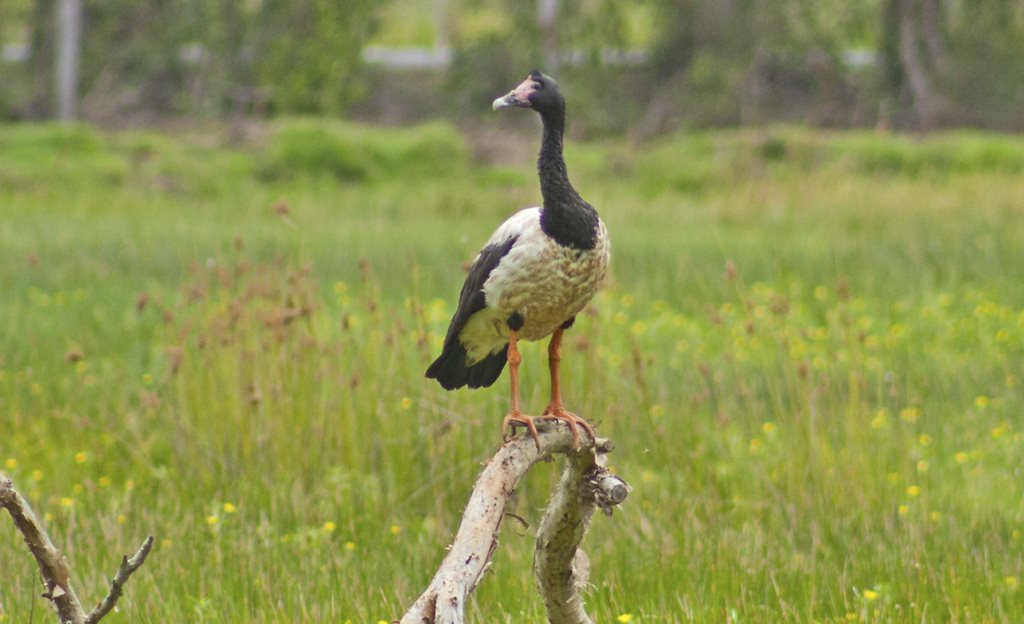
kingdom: Animalia
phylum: Chordata
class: Aves
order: Anseriformes
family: Anseranatidae
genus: Anseranas
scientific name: Anseranas semipalmata
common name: Magpie goose
